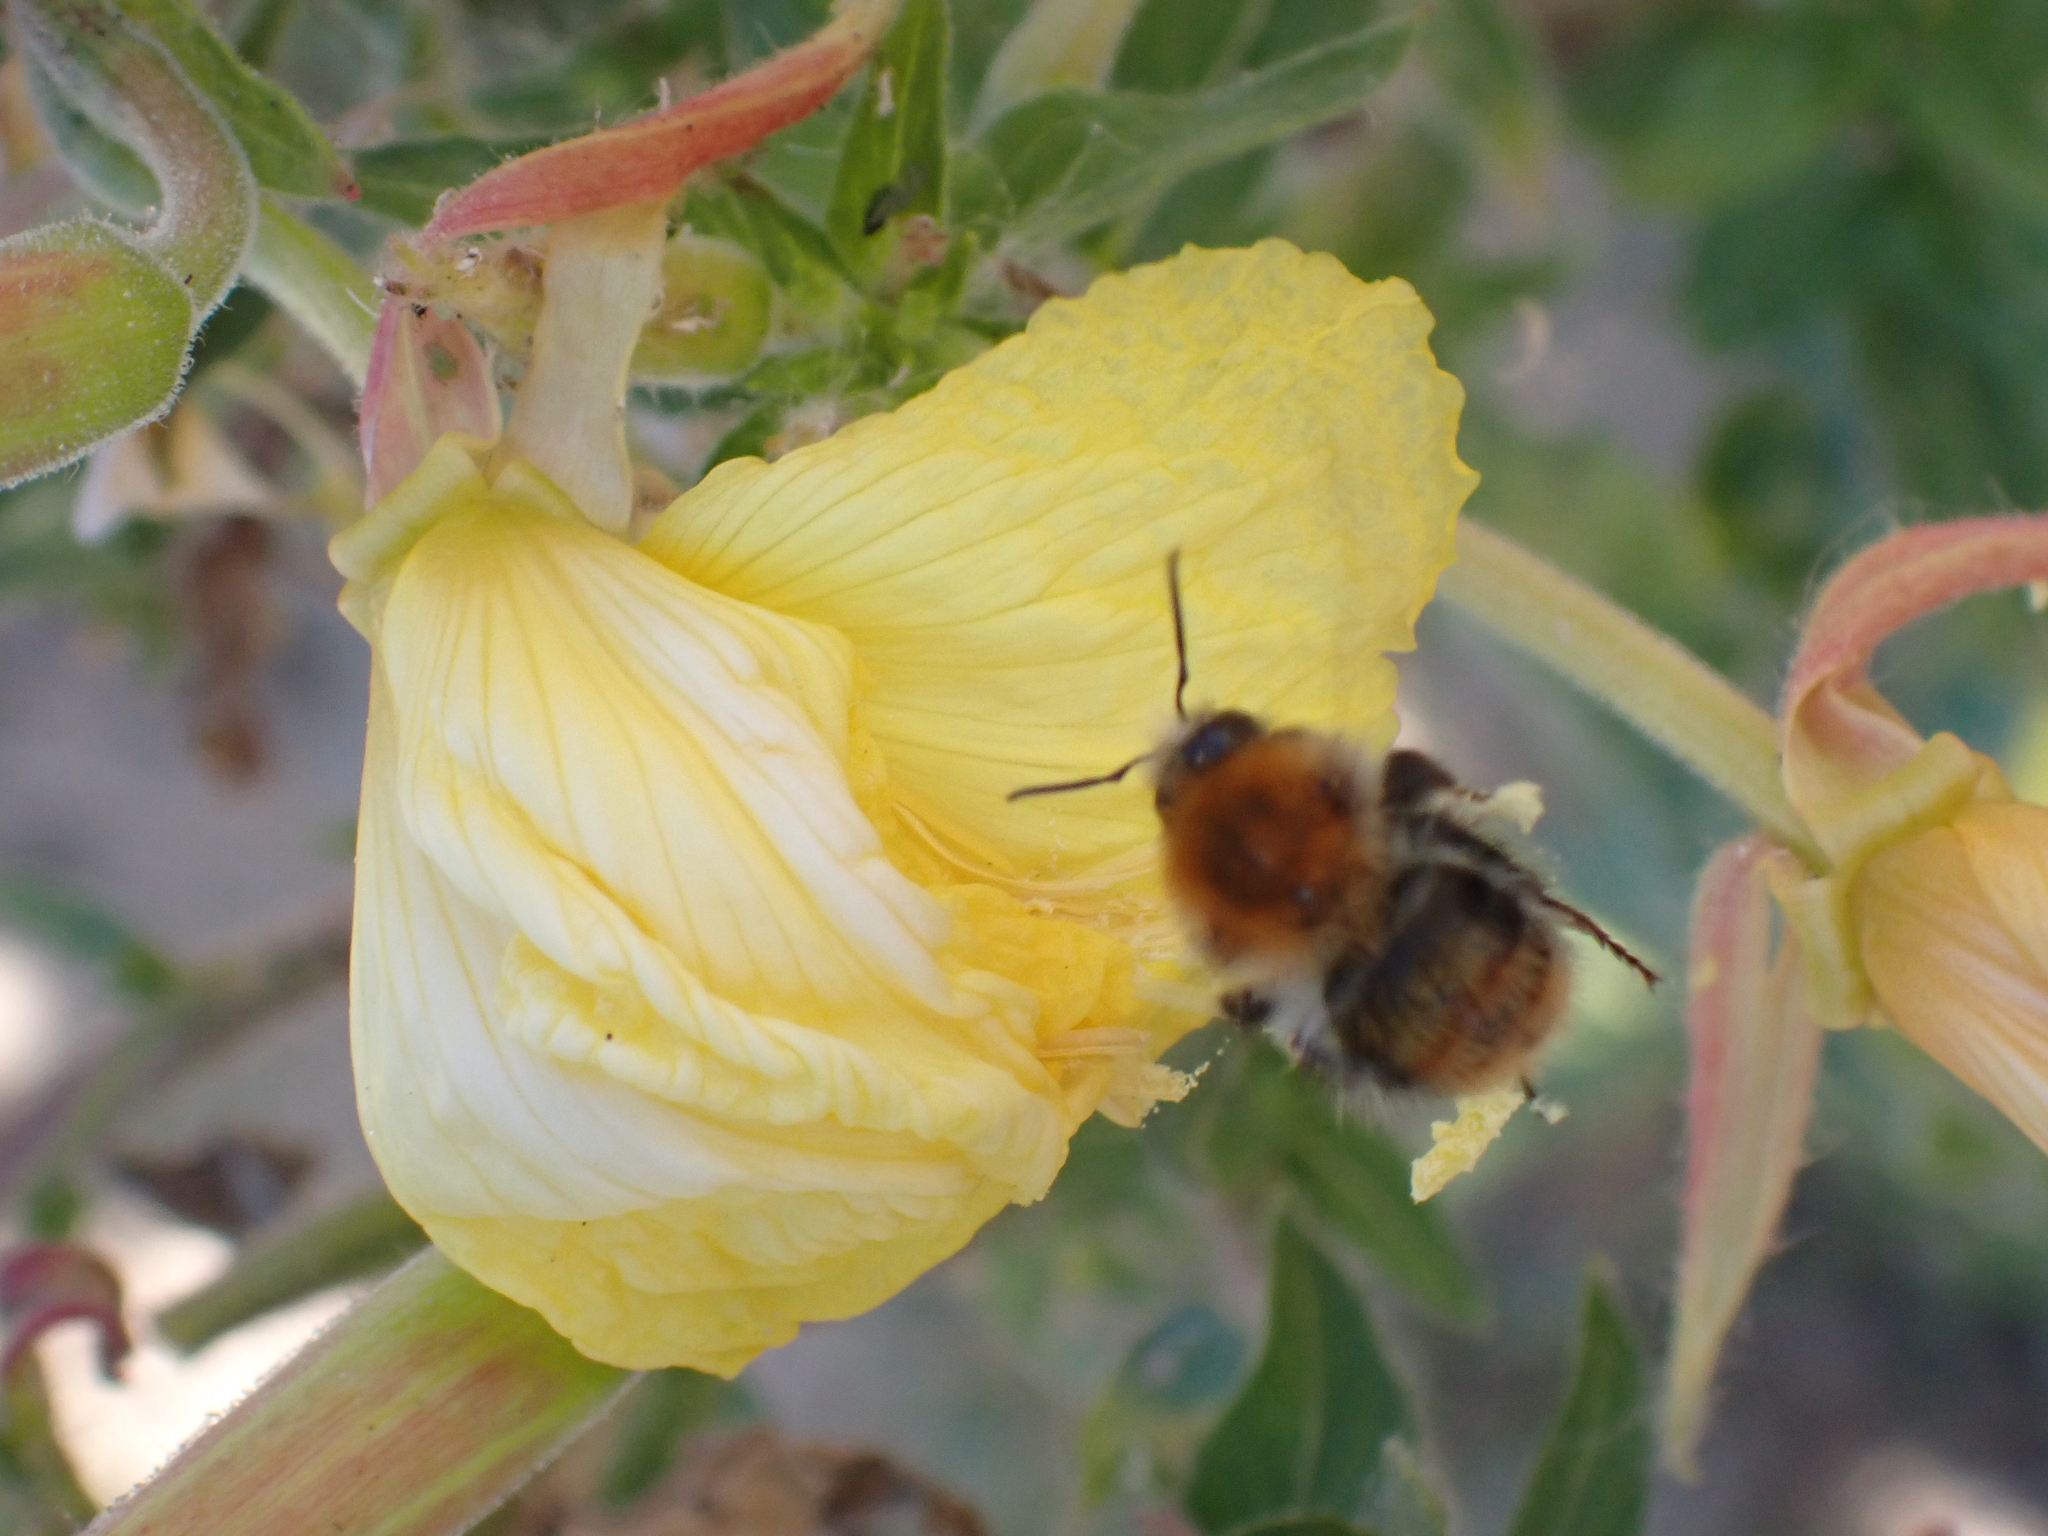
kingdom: Animalia
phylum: Arthropoda
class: Insecta
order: Hymenoptera
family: Apidae
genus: Bombus
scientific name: Bombus pascuorum
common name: Common carder bee
